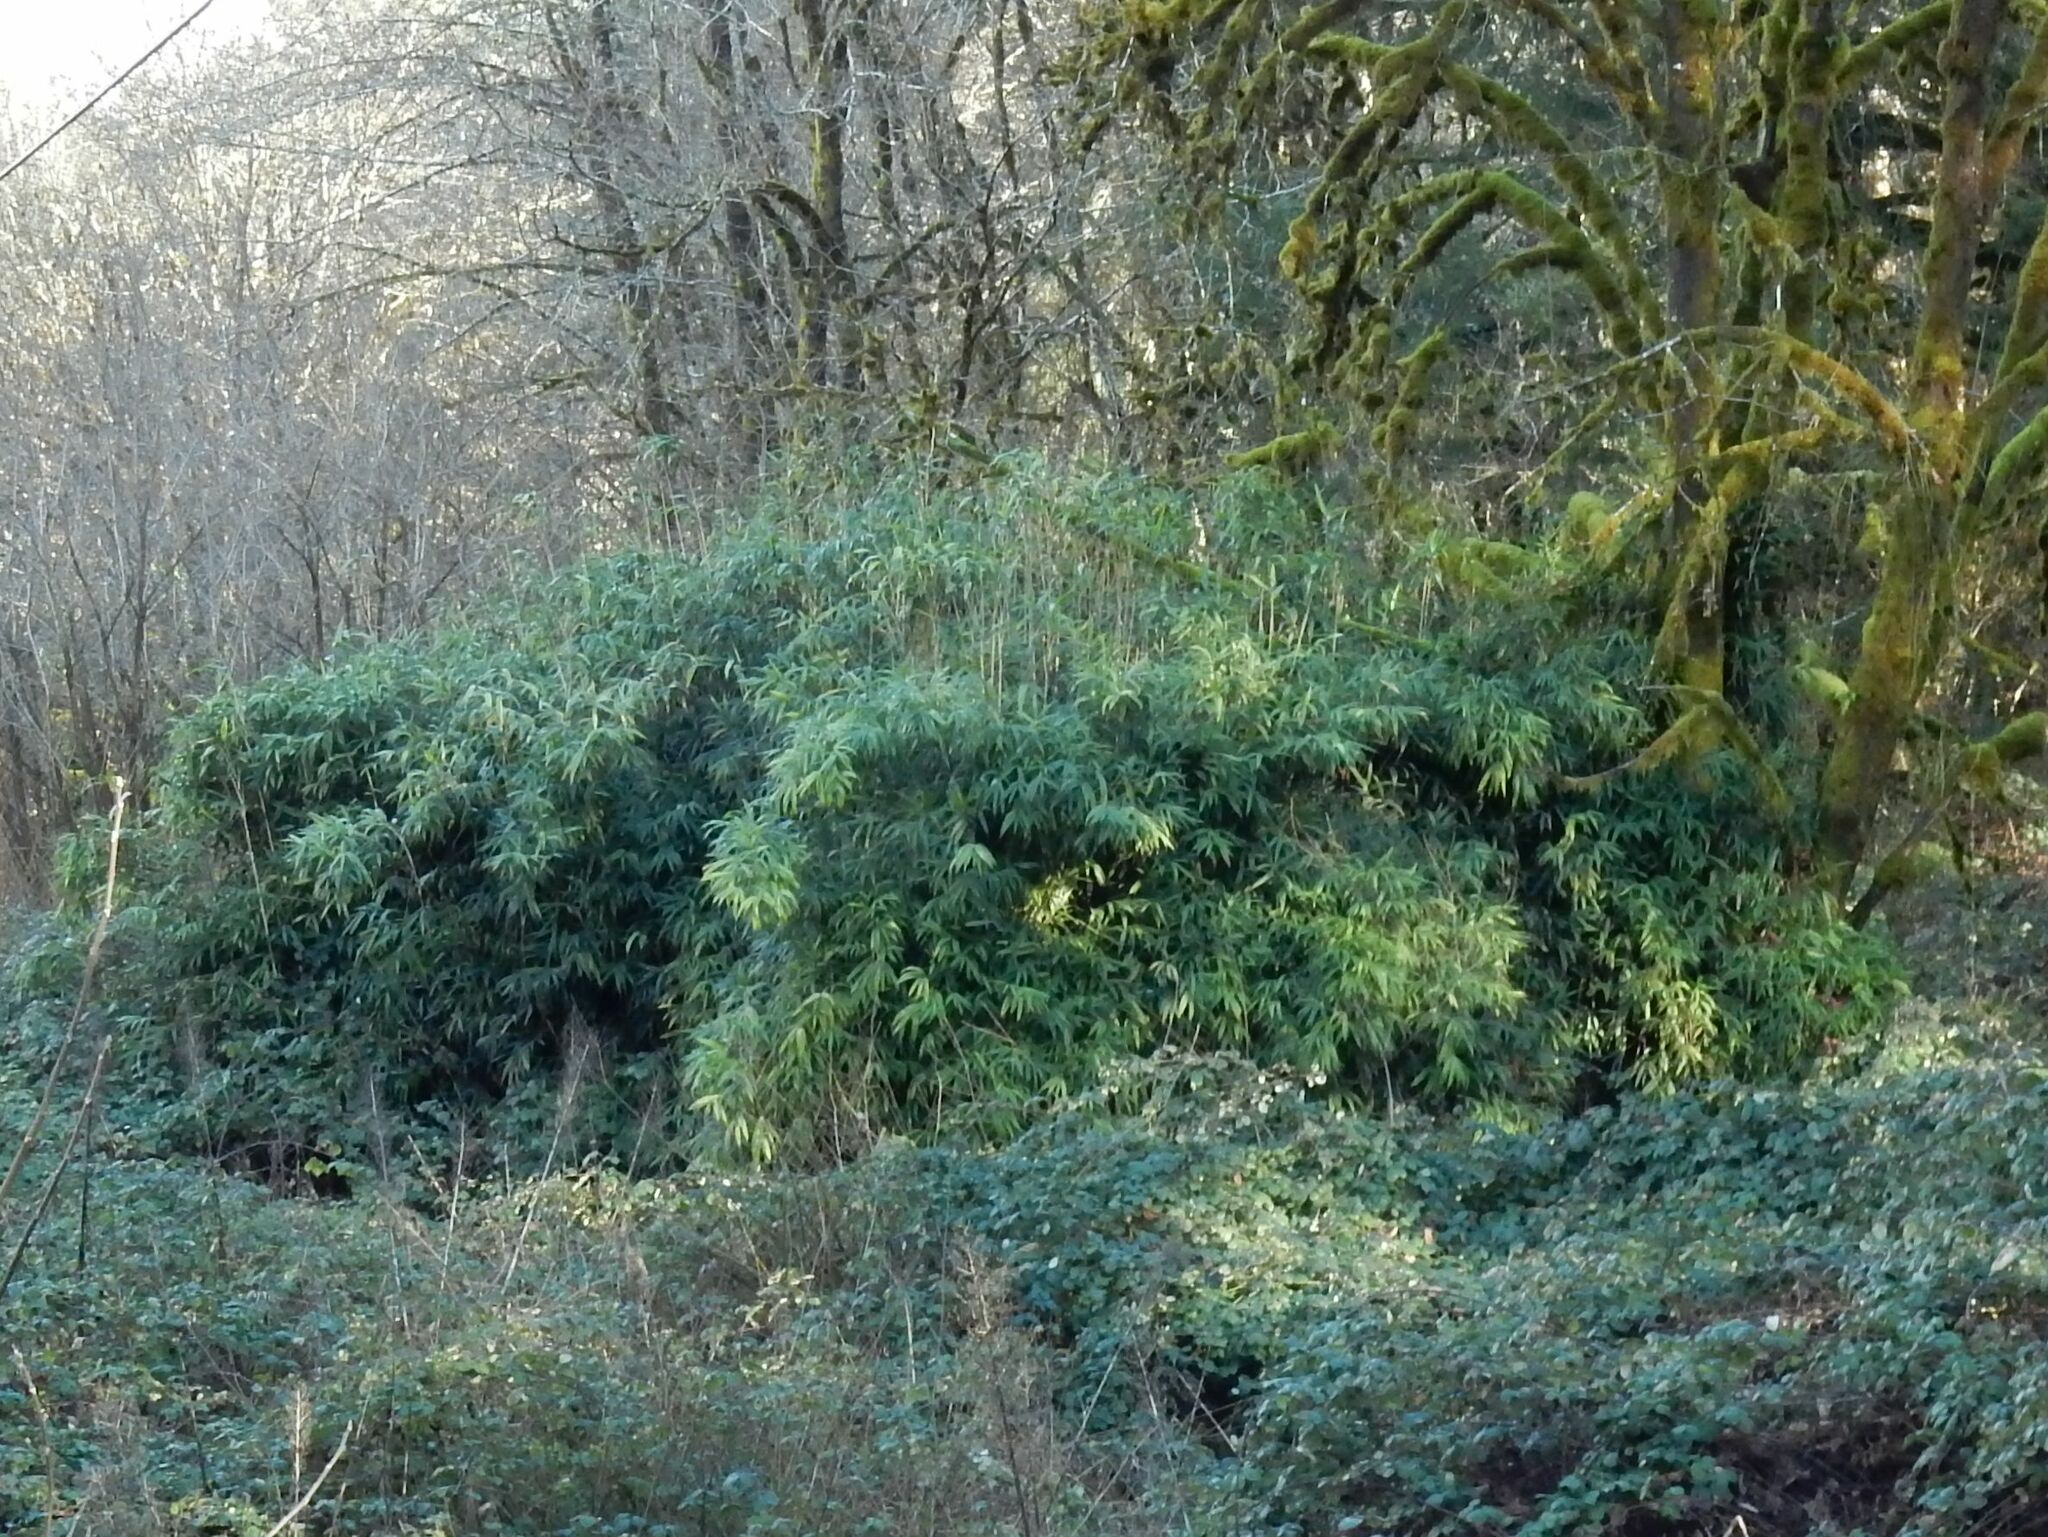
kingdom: Plantae
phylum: Tracheophyta
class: Liliopsida
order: Poales
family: Poaceae
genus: Pseudosasa
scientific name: Pseudosasa japonica
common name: Arrow bamboo
